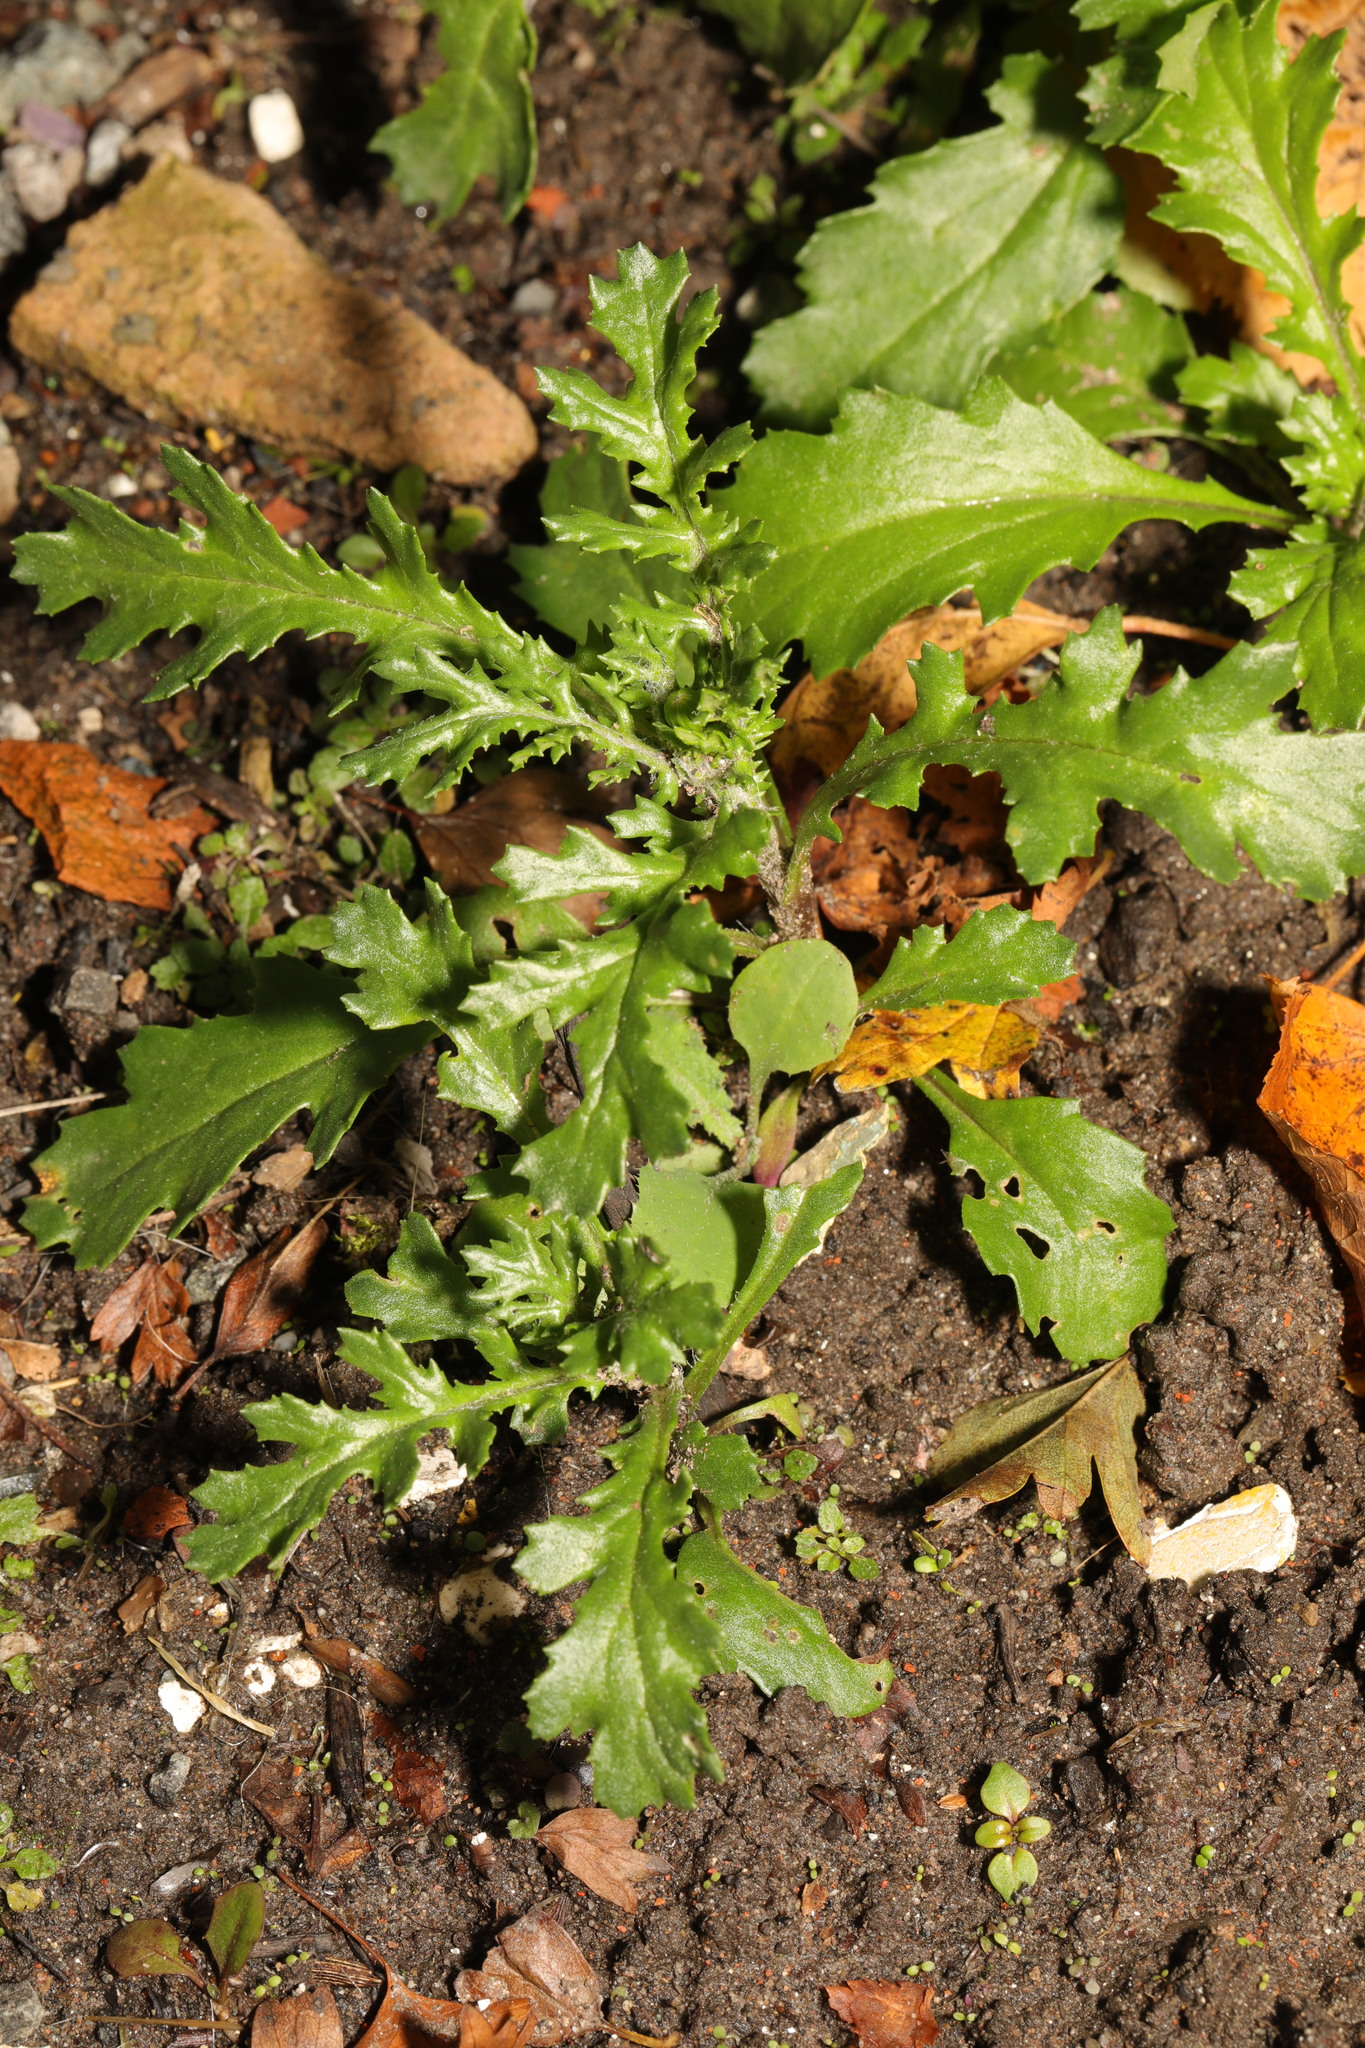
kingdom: Plantae
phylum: Tracheophyta
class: Magnoliopsida
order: Asterales
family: Asteraceae
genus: Senecio
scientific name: Senecio vulgaris
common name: Old-man-in-the-spring
